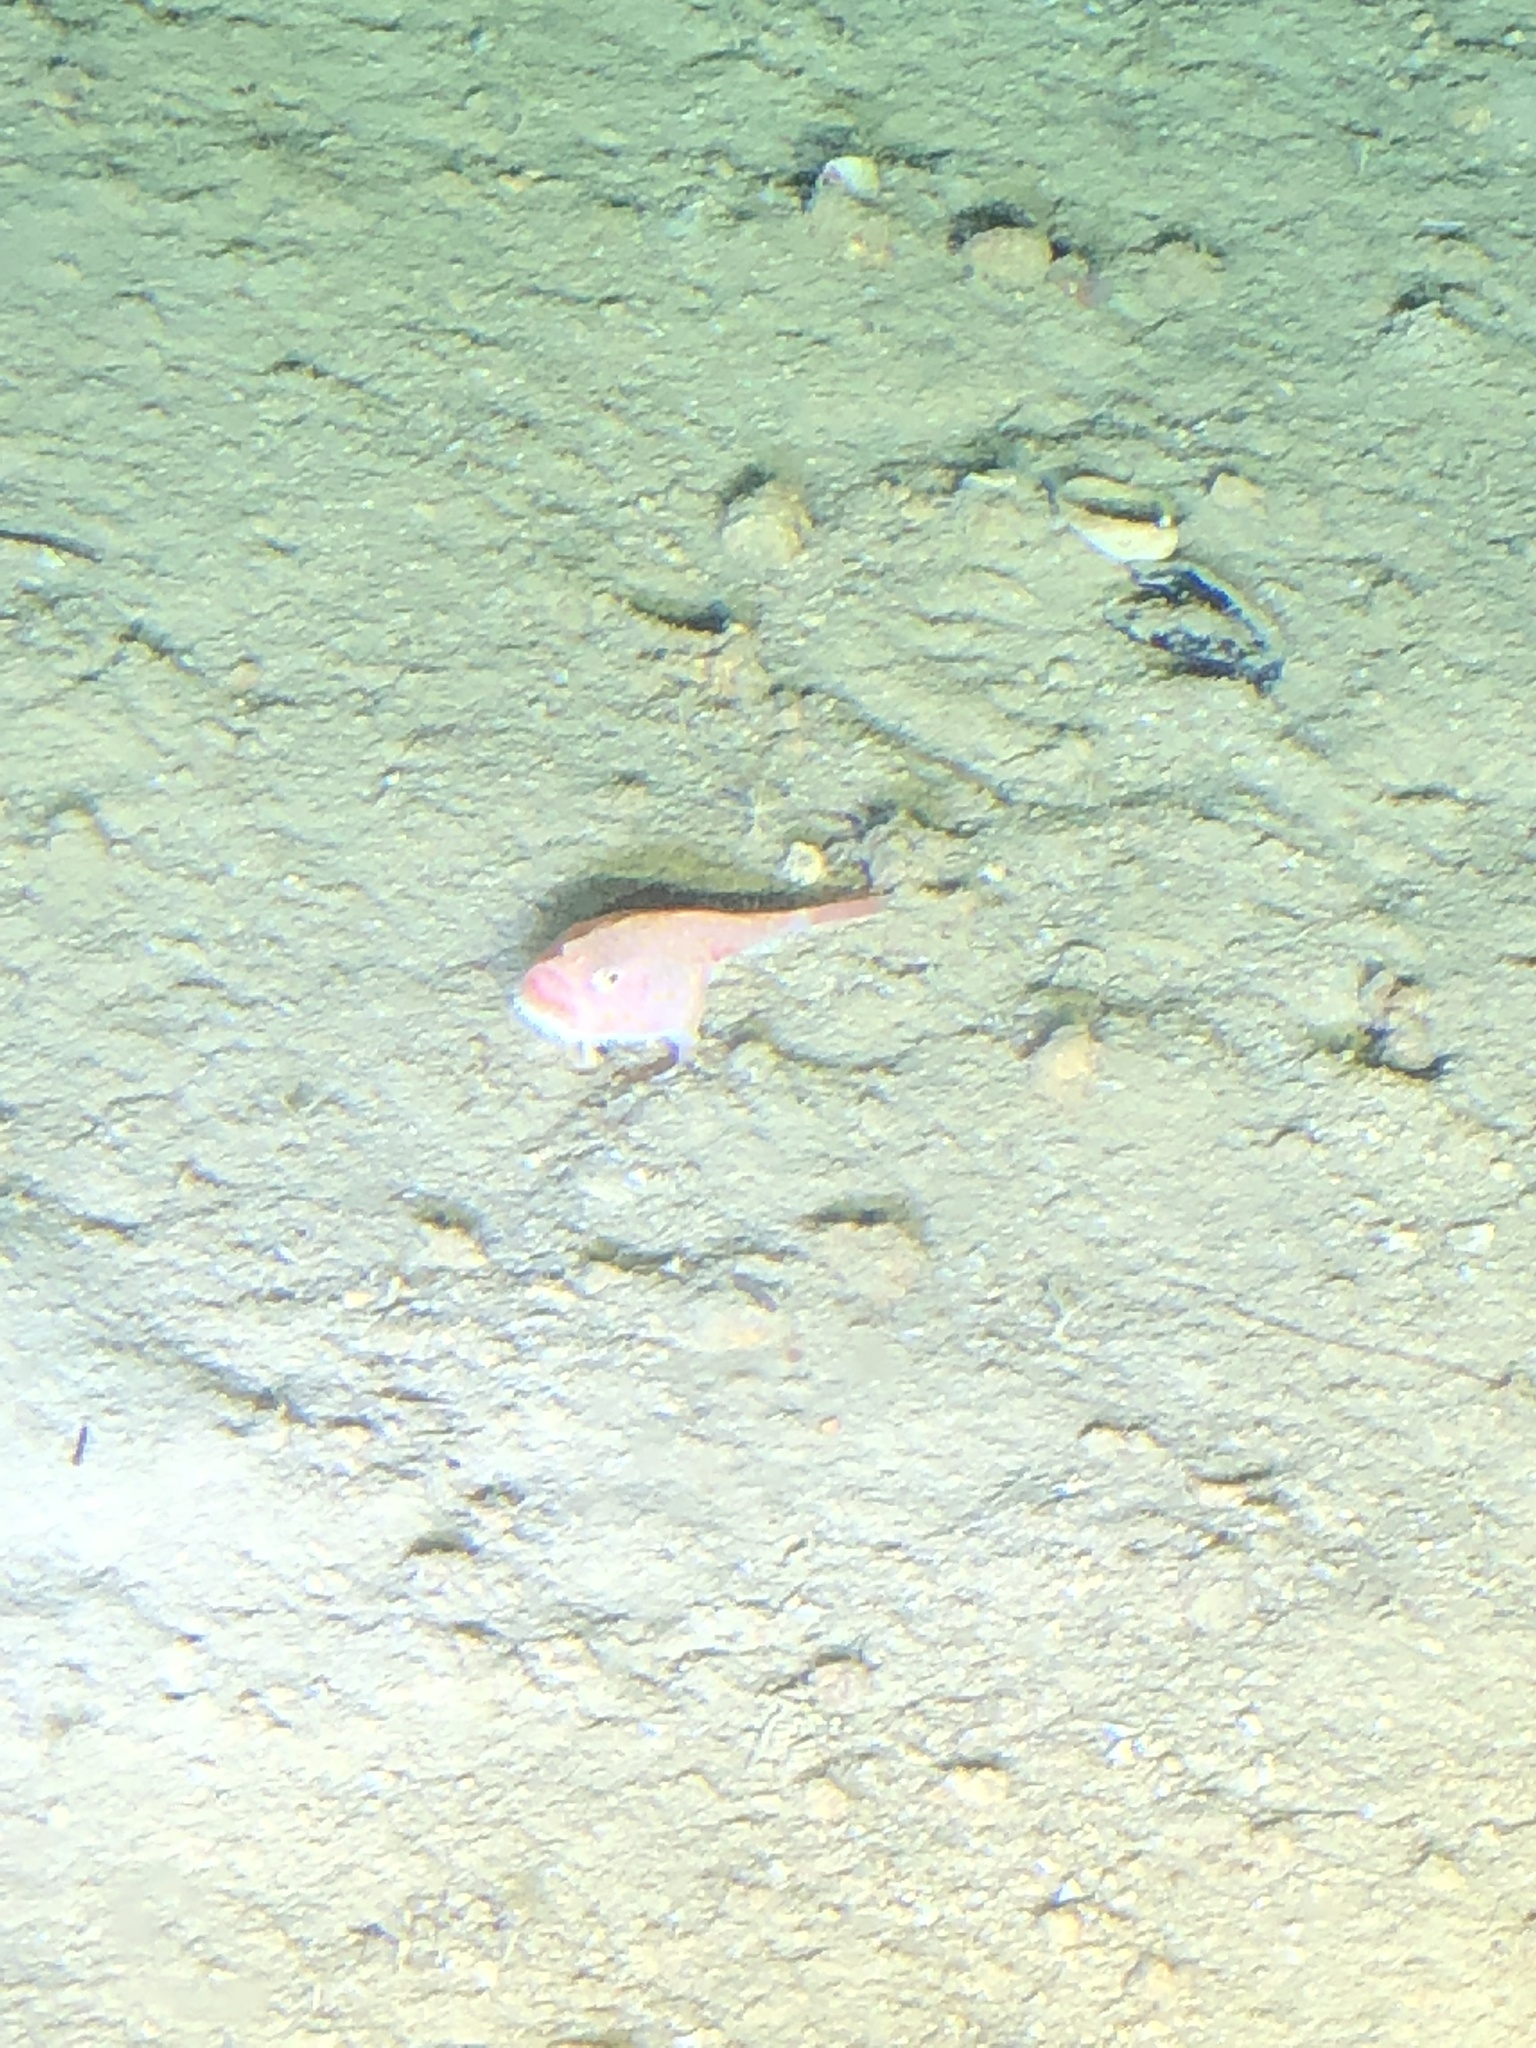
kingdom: Animalia
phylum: Chordata
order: Lophiiformes
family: Chaunacidae
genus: Chaunax
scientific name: Chaunax suttkusi
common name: Pink frogmouth
